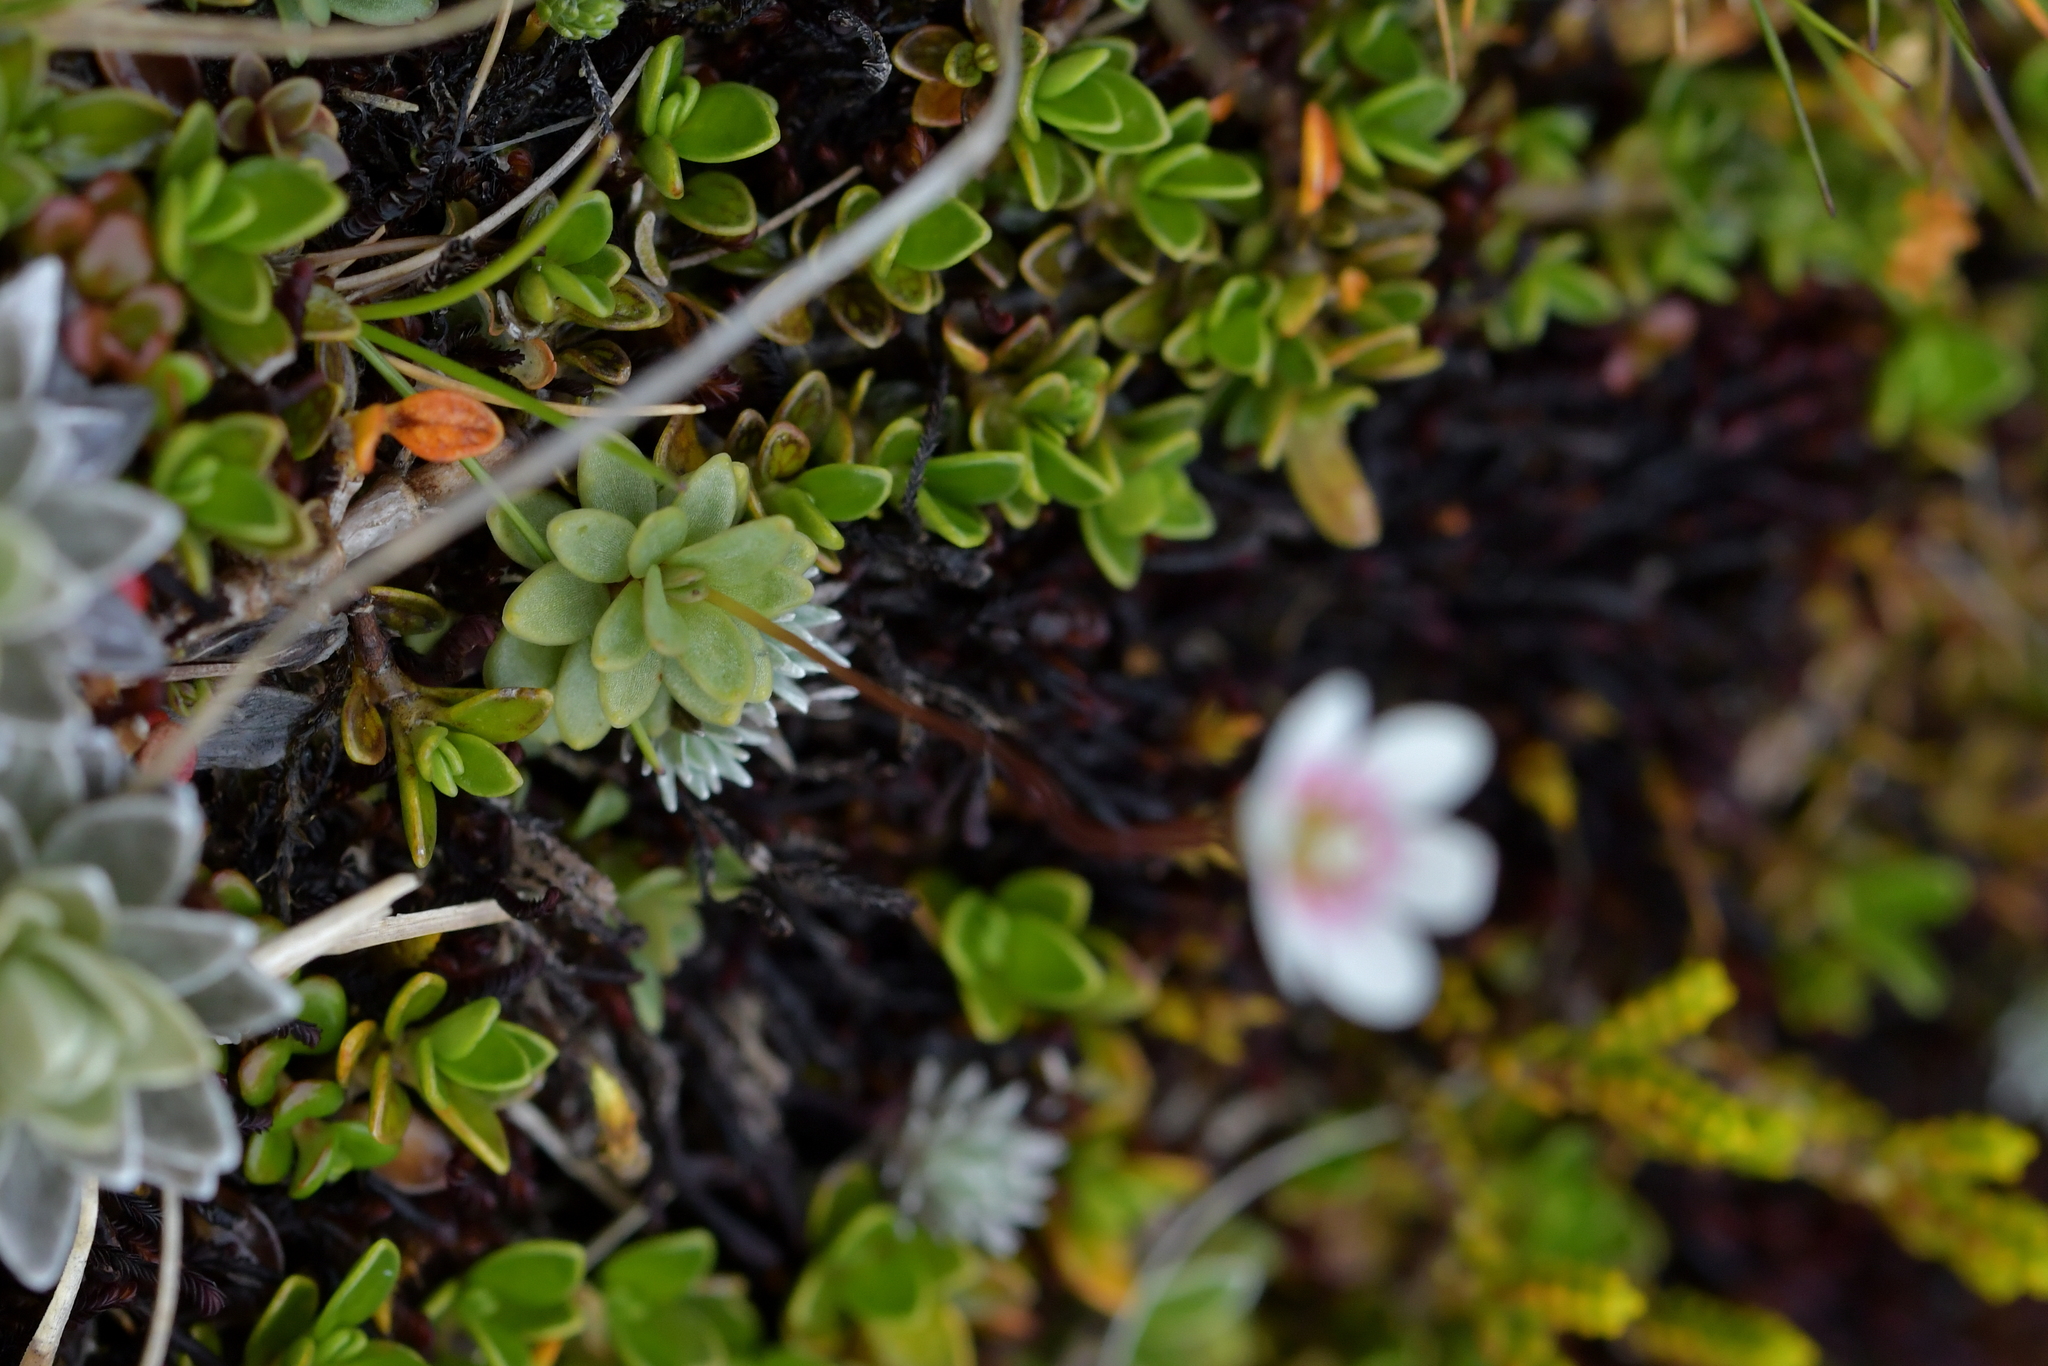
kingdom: Plantae
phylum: Tracheophyta
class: Magnoliopsida
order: Asterales
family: Stylidiaceae
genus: Forstera
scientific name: Forstera tenella
